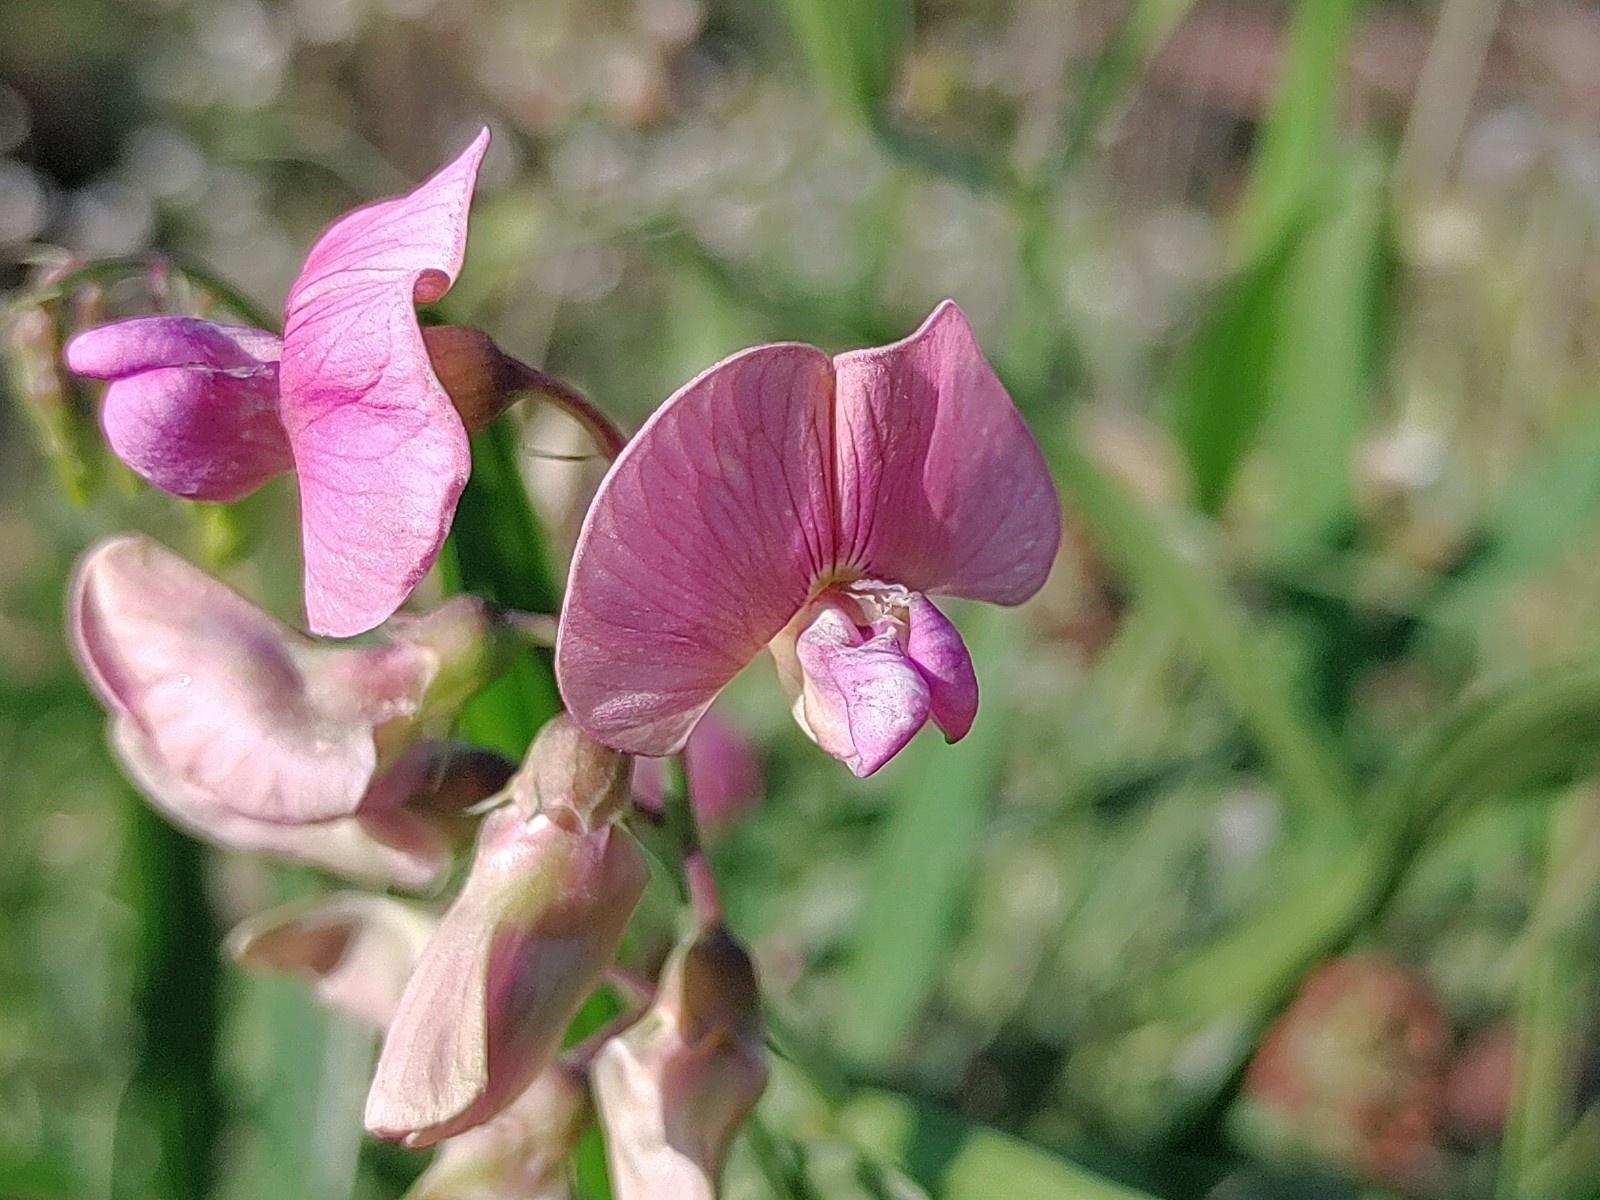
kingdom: Plantae
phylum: Tracheophyta
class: Magnoliopsida
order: Fabales
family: Fabaceae
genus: Lathyrus
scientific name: Lathyrus sylvestris
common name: Flat pea
